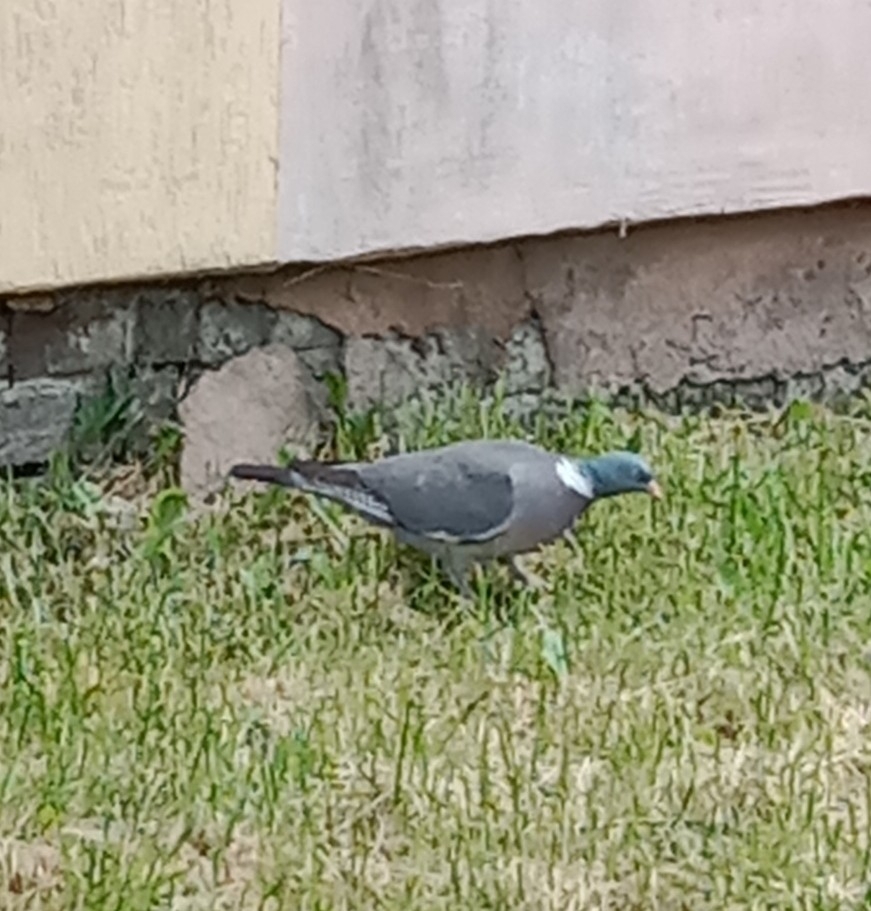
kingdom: Animalia
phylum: Chordata
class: Aves
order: Columbiformes
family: Columbidae
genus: Columba
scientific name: Columba palumbus
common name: Common wood pigeon
